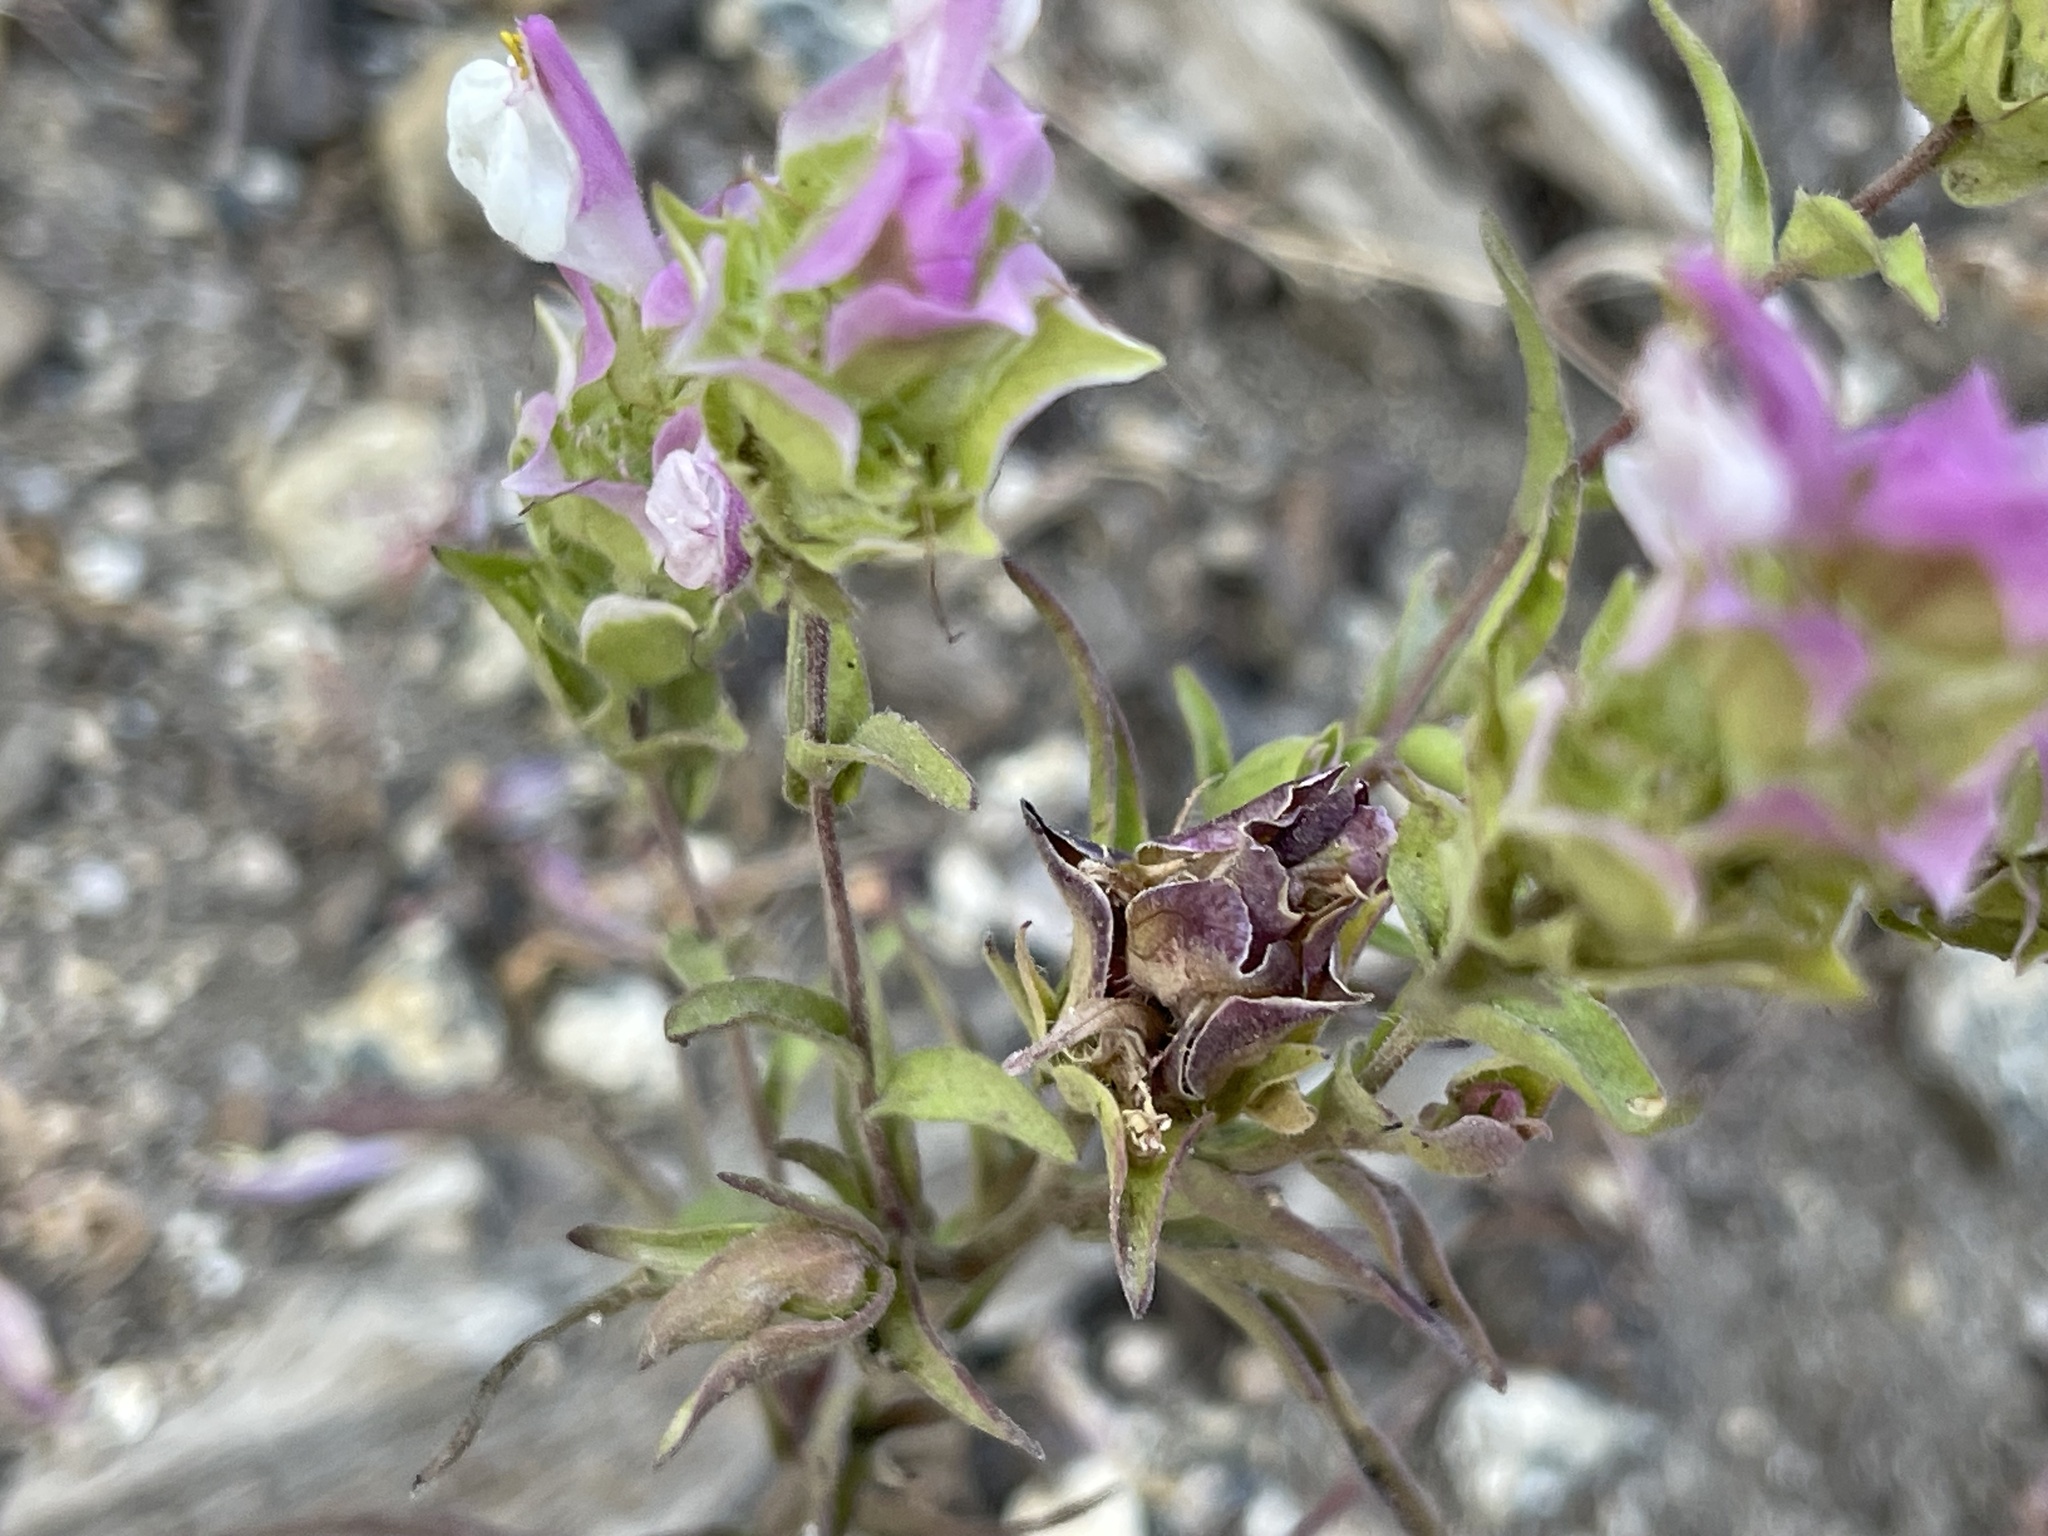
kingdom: Plantae
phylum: Tracheophyta
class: Magnoliopsida
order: Lamiales
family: Orobanchaceae
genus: Orthocarpus
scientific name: Orthocarpus cuspidatus
